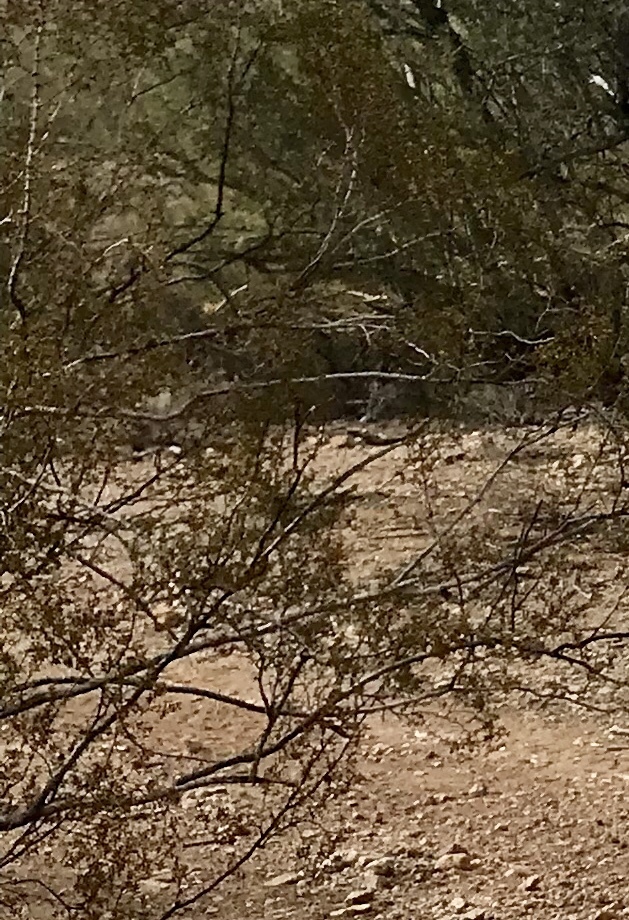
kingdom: Plantae
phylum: Tracheophyta
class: Magnoliopsida
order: Zygophyllales
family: Zygophyllaceae
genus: Larrea
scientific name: Larrea tridentata
